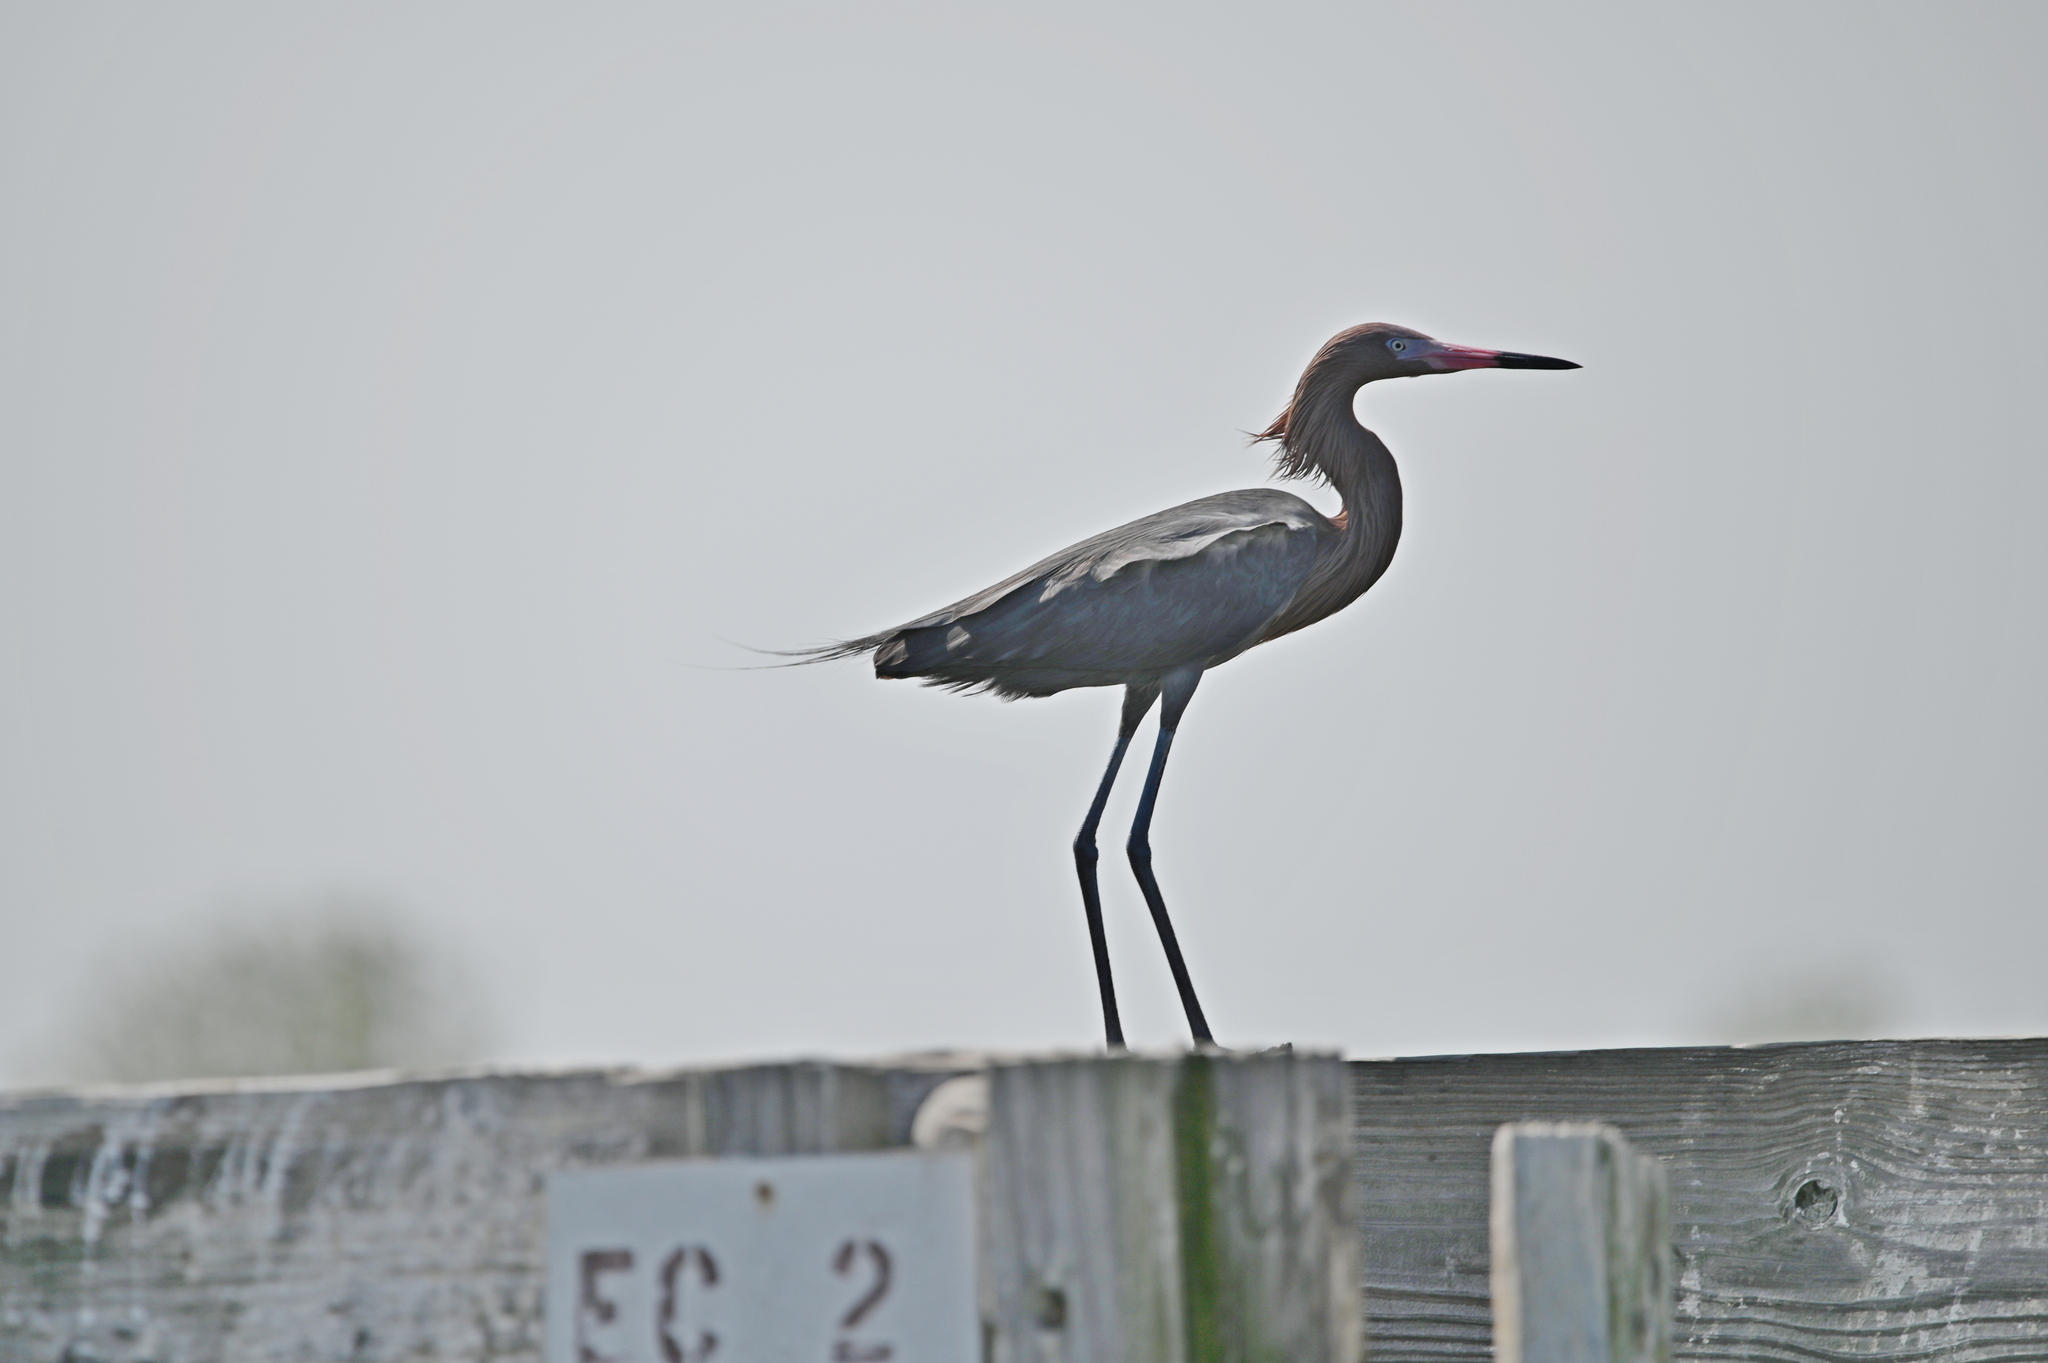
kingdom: Animalia
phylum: Chordata
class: Aves
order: Pelecaniformes
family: Ardeidae
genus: Egretta
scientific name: Egretta rufescens
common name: Reddish egret
